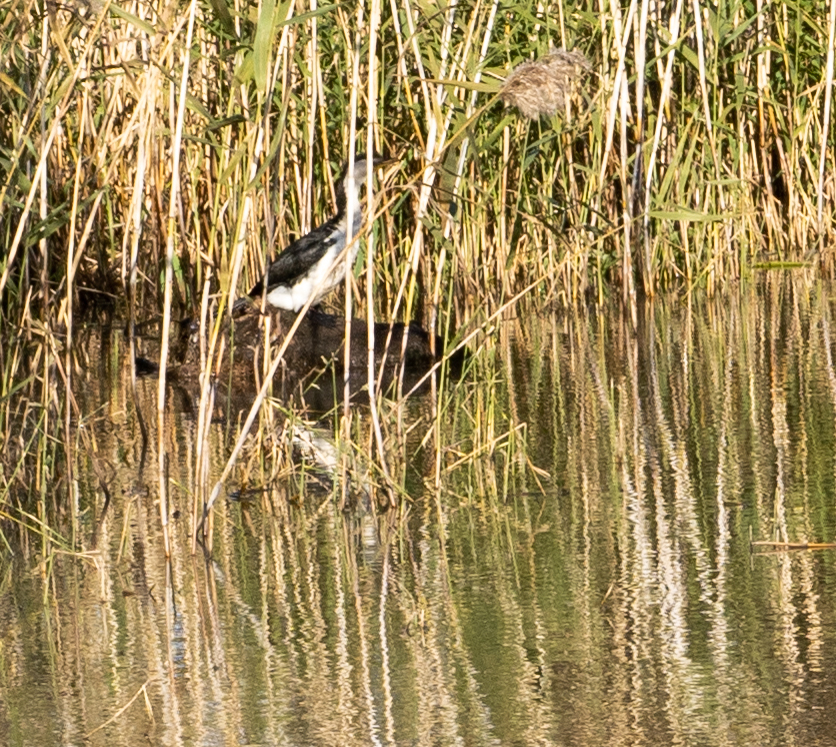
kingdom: Animalia
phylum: Chordata
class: Aves
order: Suliformes
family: Phalacrocoracidae
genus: Microcarbo
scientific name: Microcarbo melanoleucos
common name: Little pied cormorant
